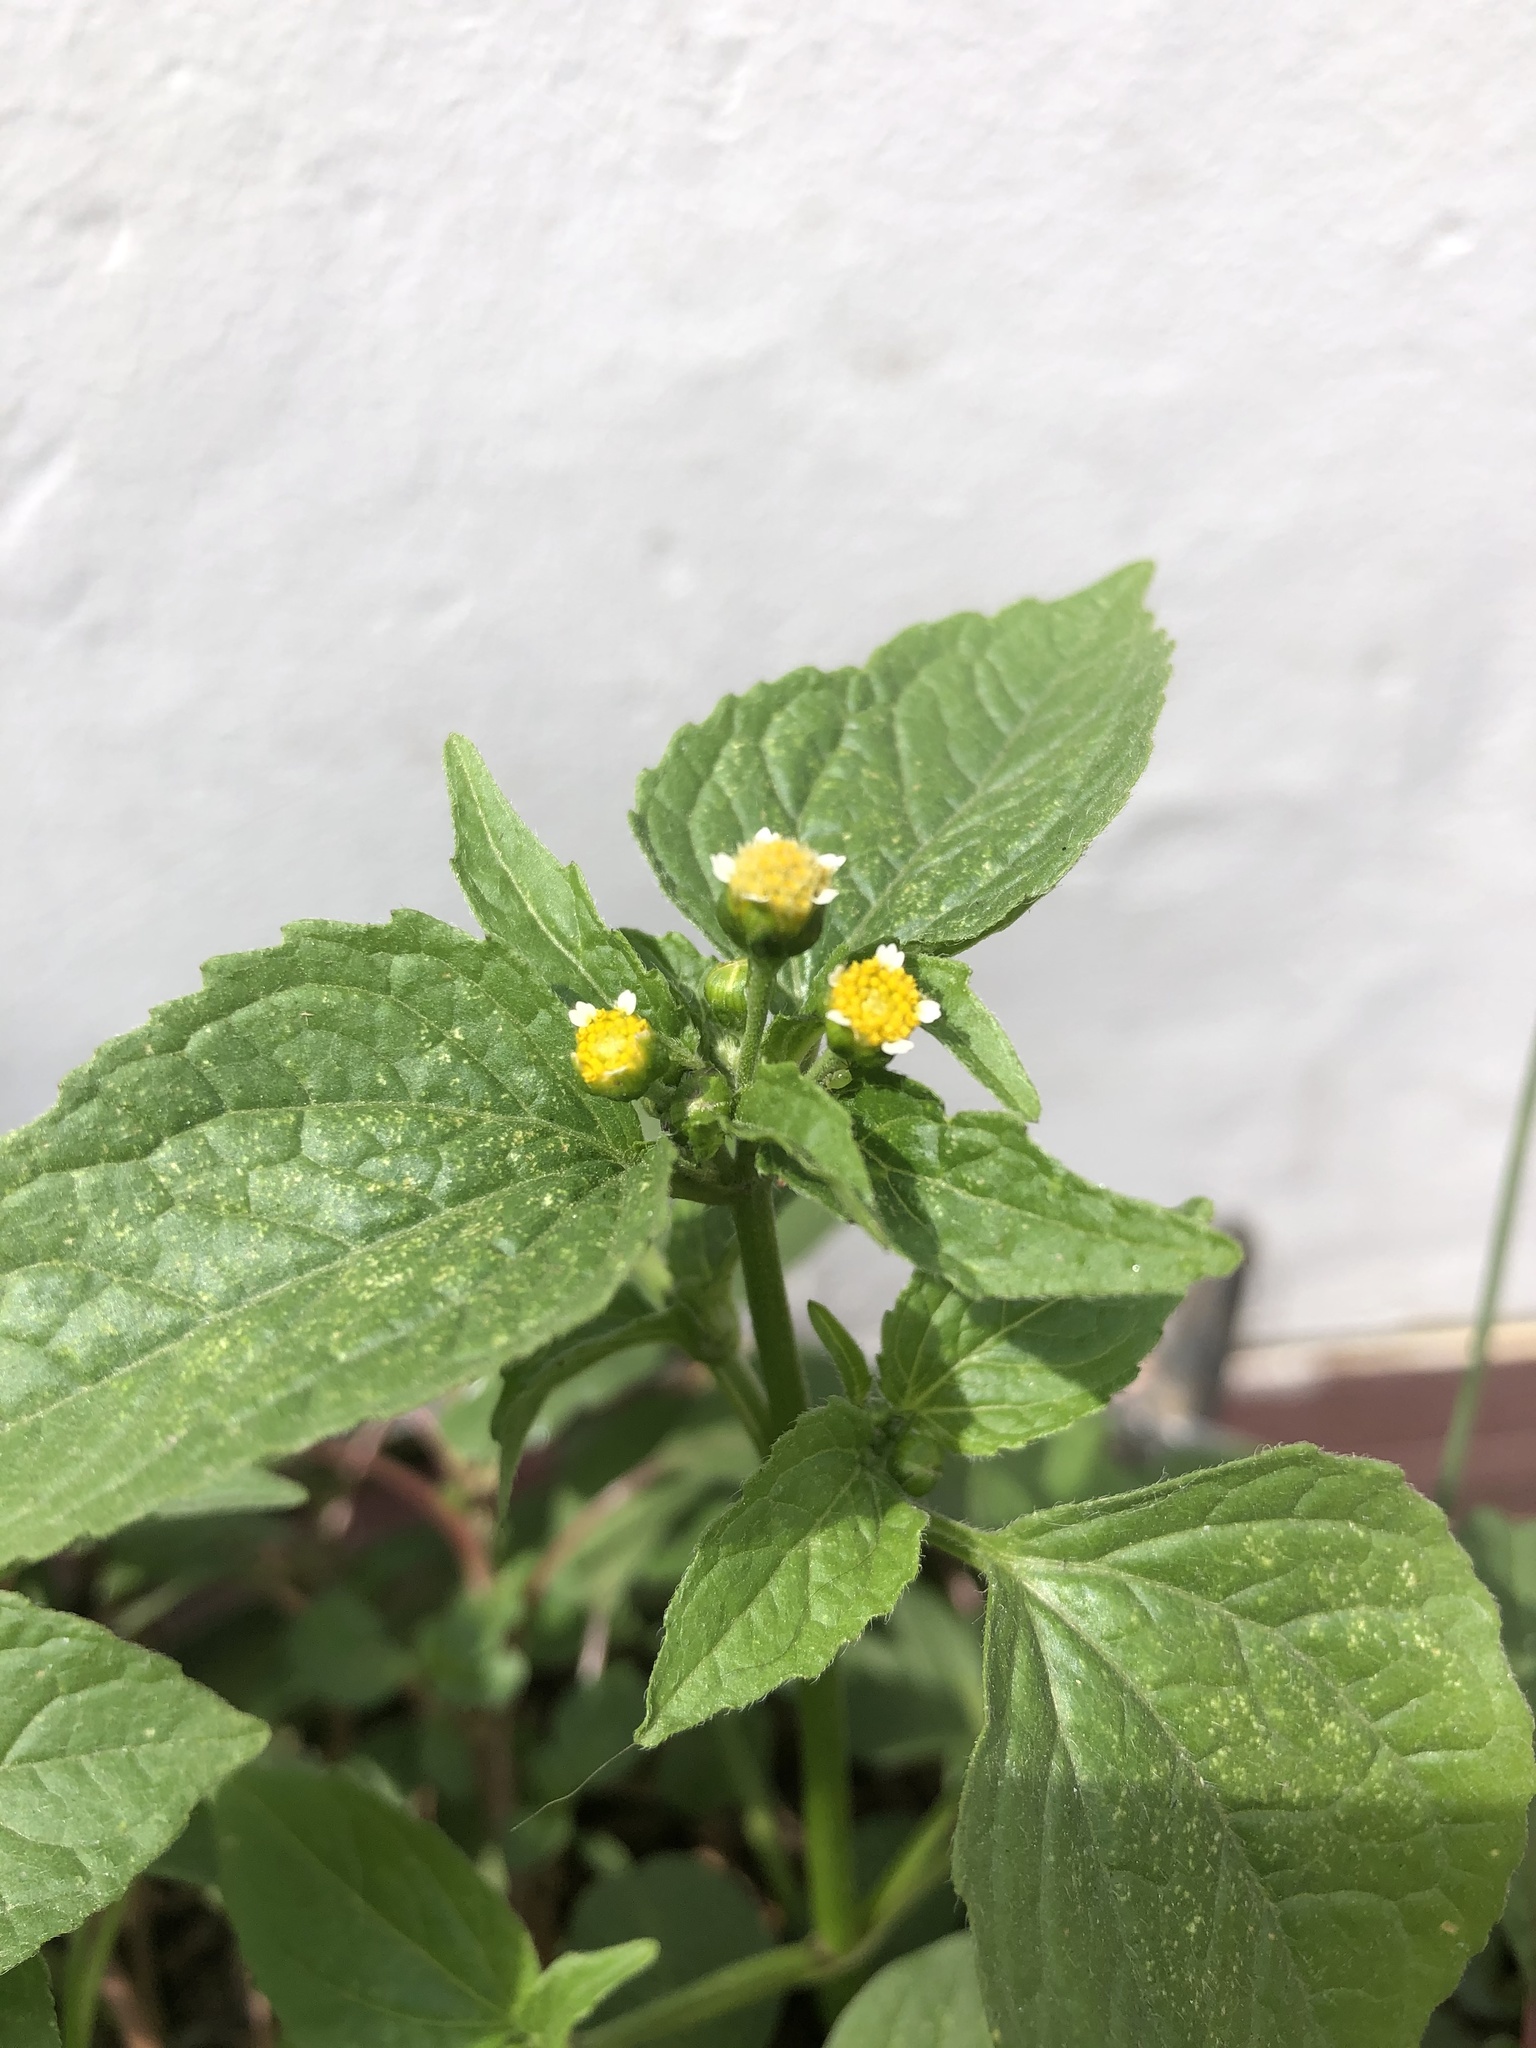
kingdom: Plantae
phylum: Tracheophyta
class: Magnoliopsida
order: Asterales
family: Asteraceae
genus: Galinsoga
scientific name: Galinsoga parviflora
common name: Gallant soldier
